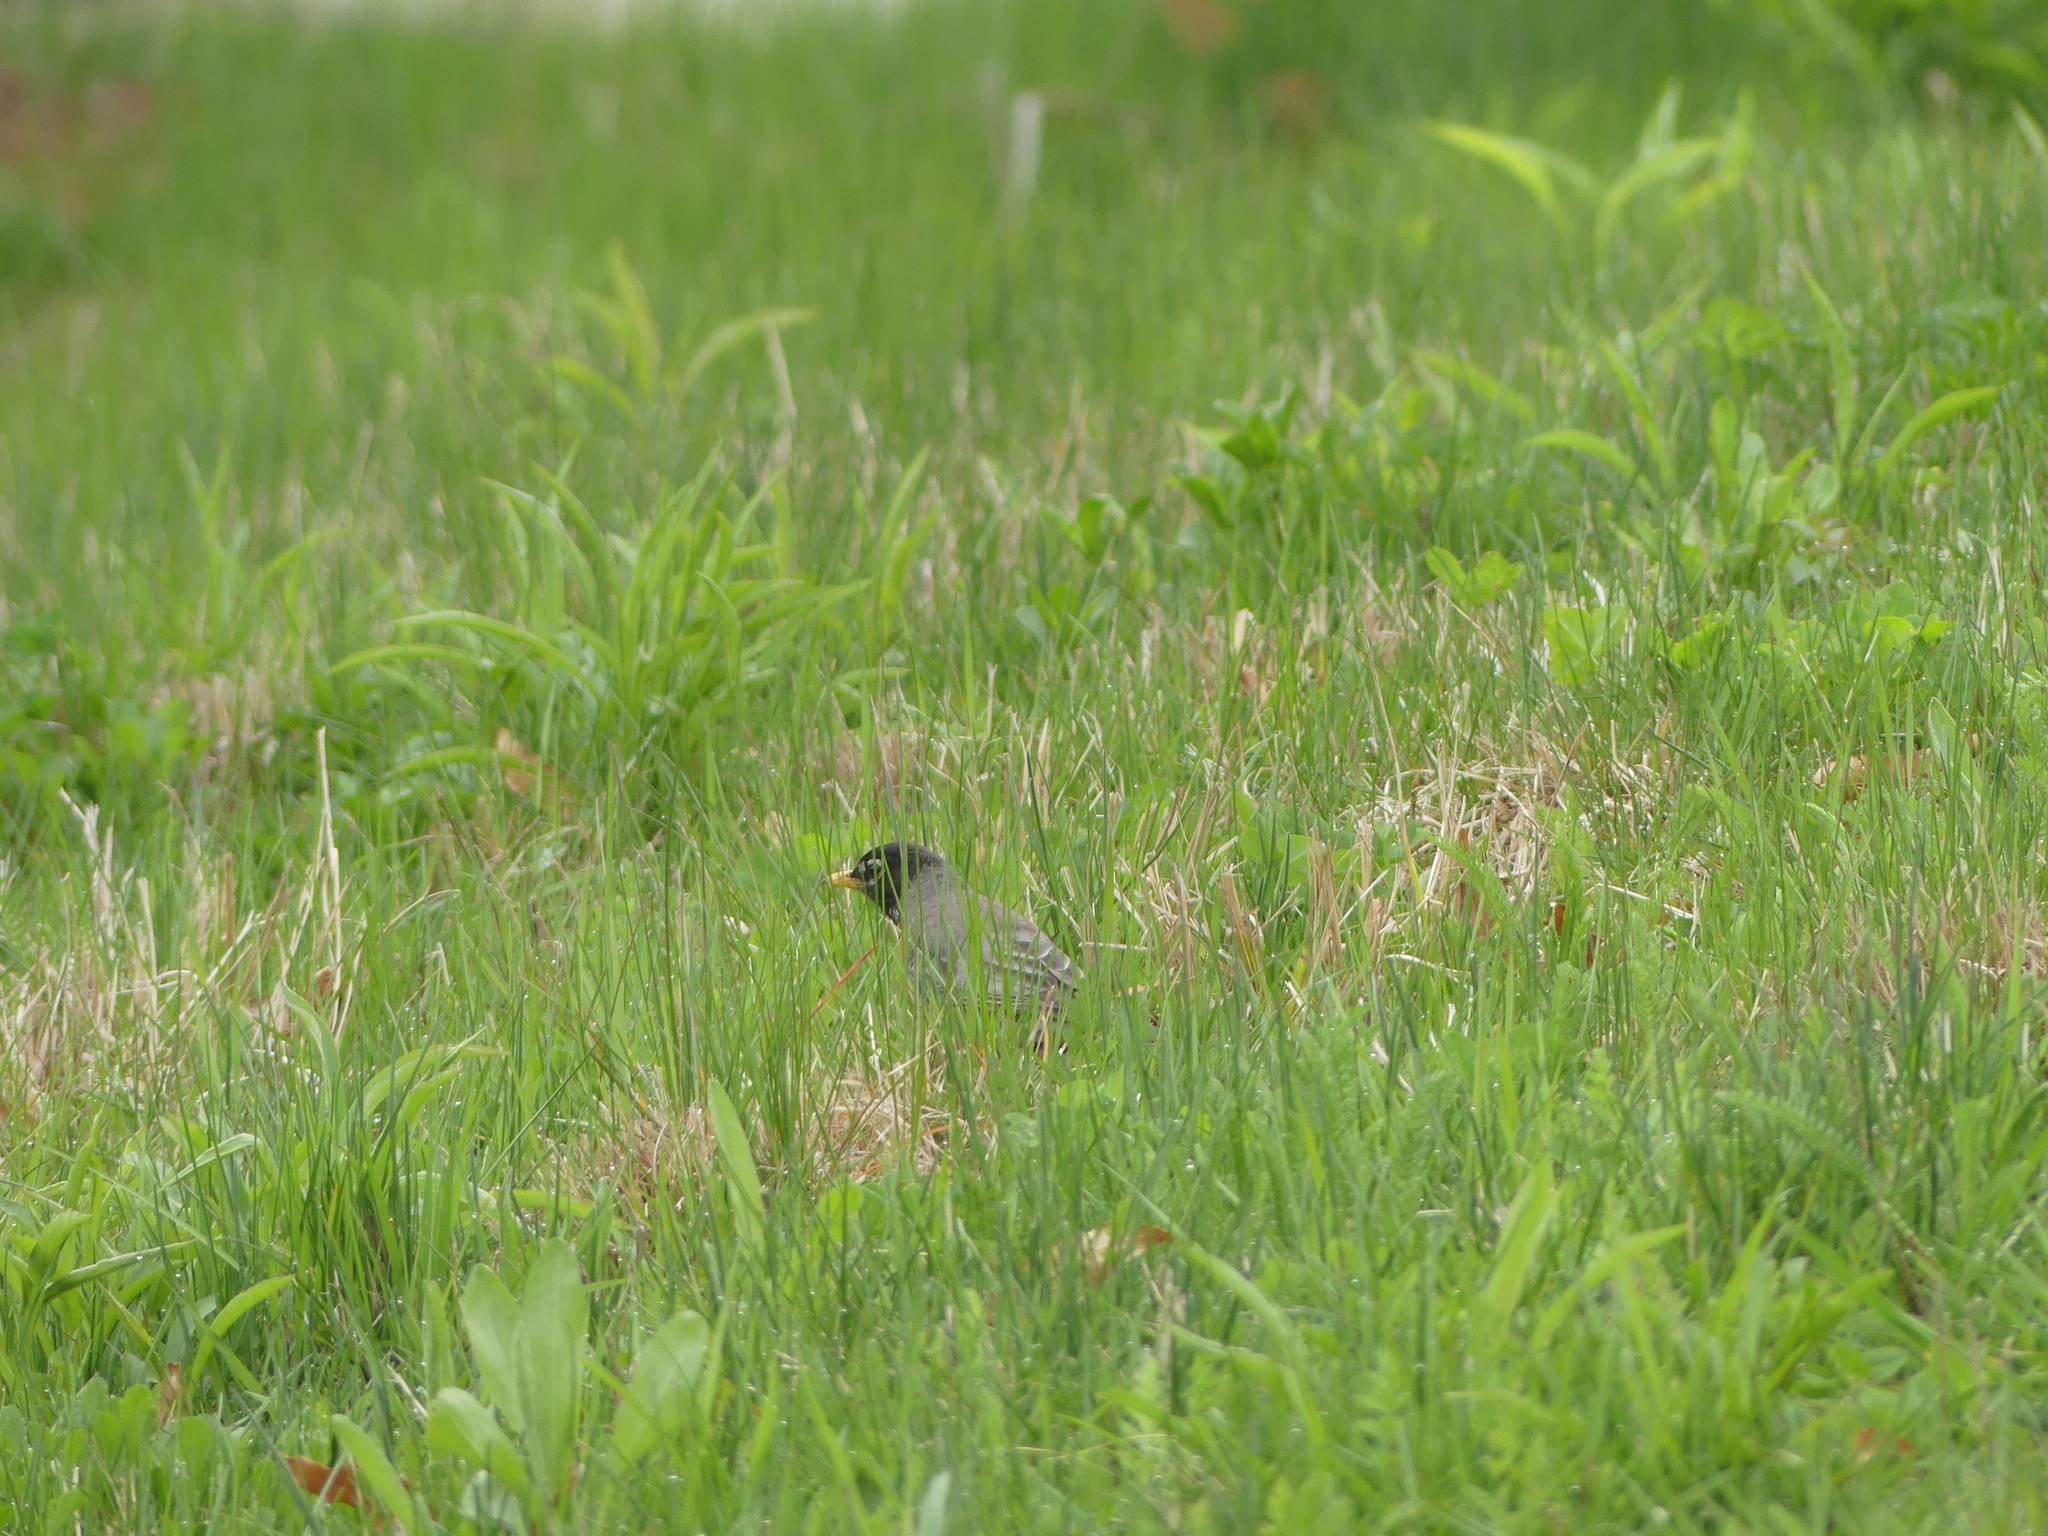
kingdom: Animalia
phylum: Chordata
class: Aves
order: Passeriformes
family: Turdidae
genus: Turdus
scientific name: Turdus migratorius
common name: American robin
